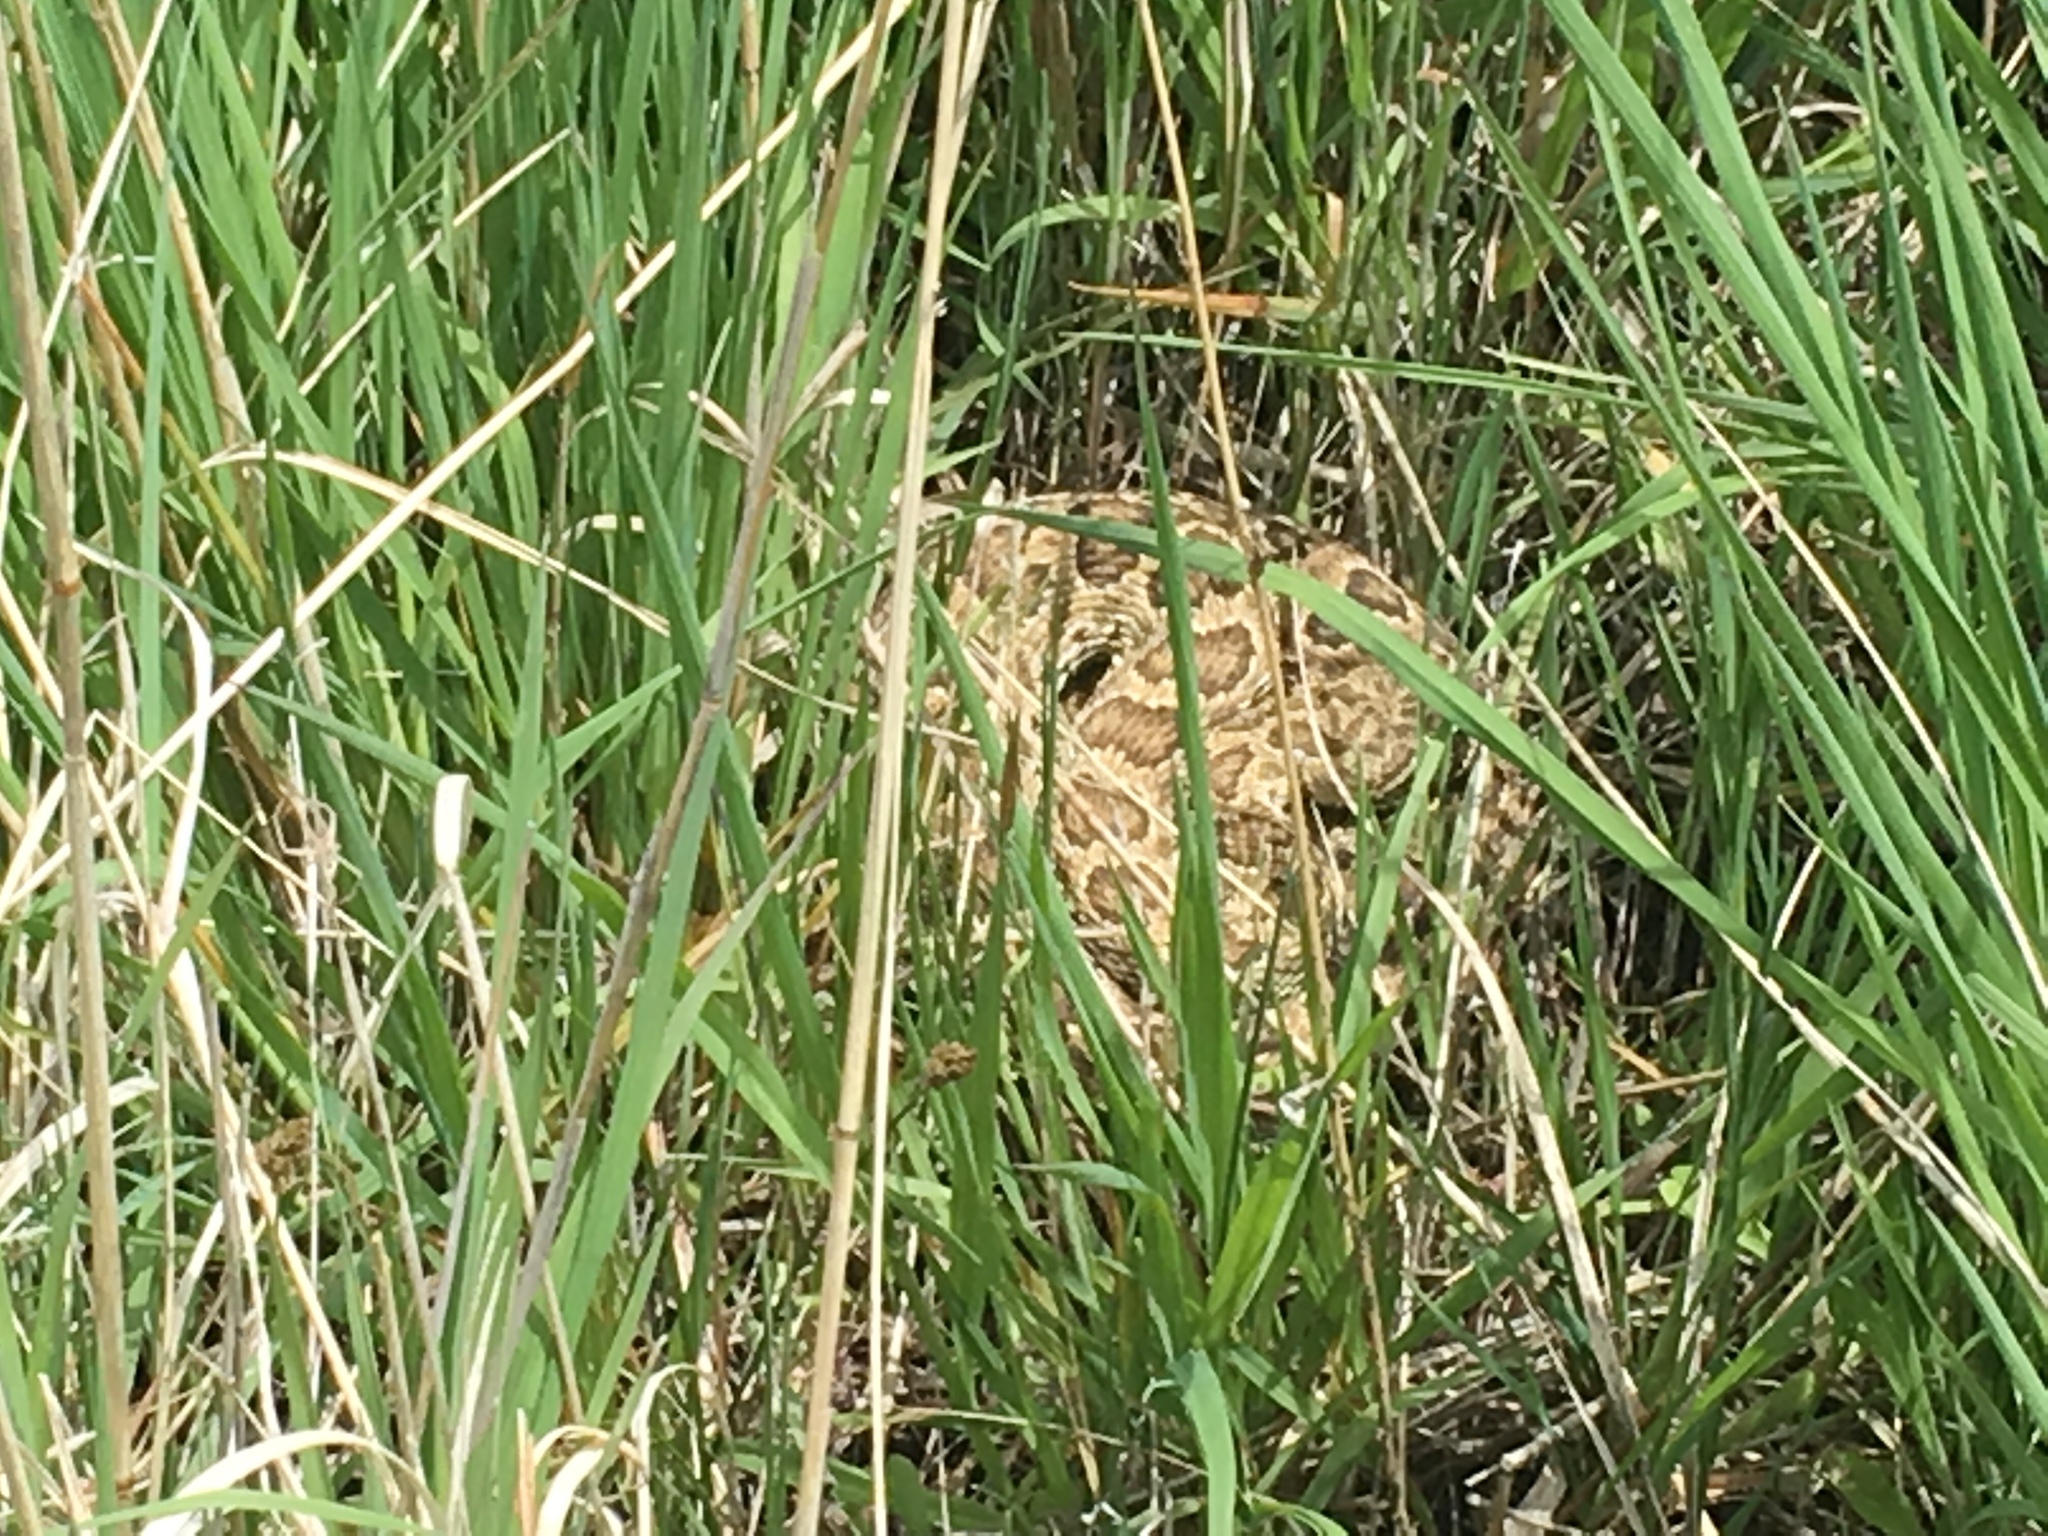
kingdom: Animalia
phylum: Chordata
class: Squamata
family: Viperidae
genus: Crotalus
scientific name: Crotalus viridis
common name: Prairie rattlesnake
